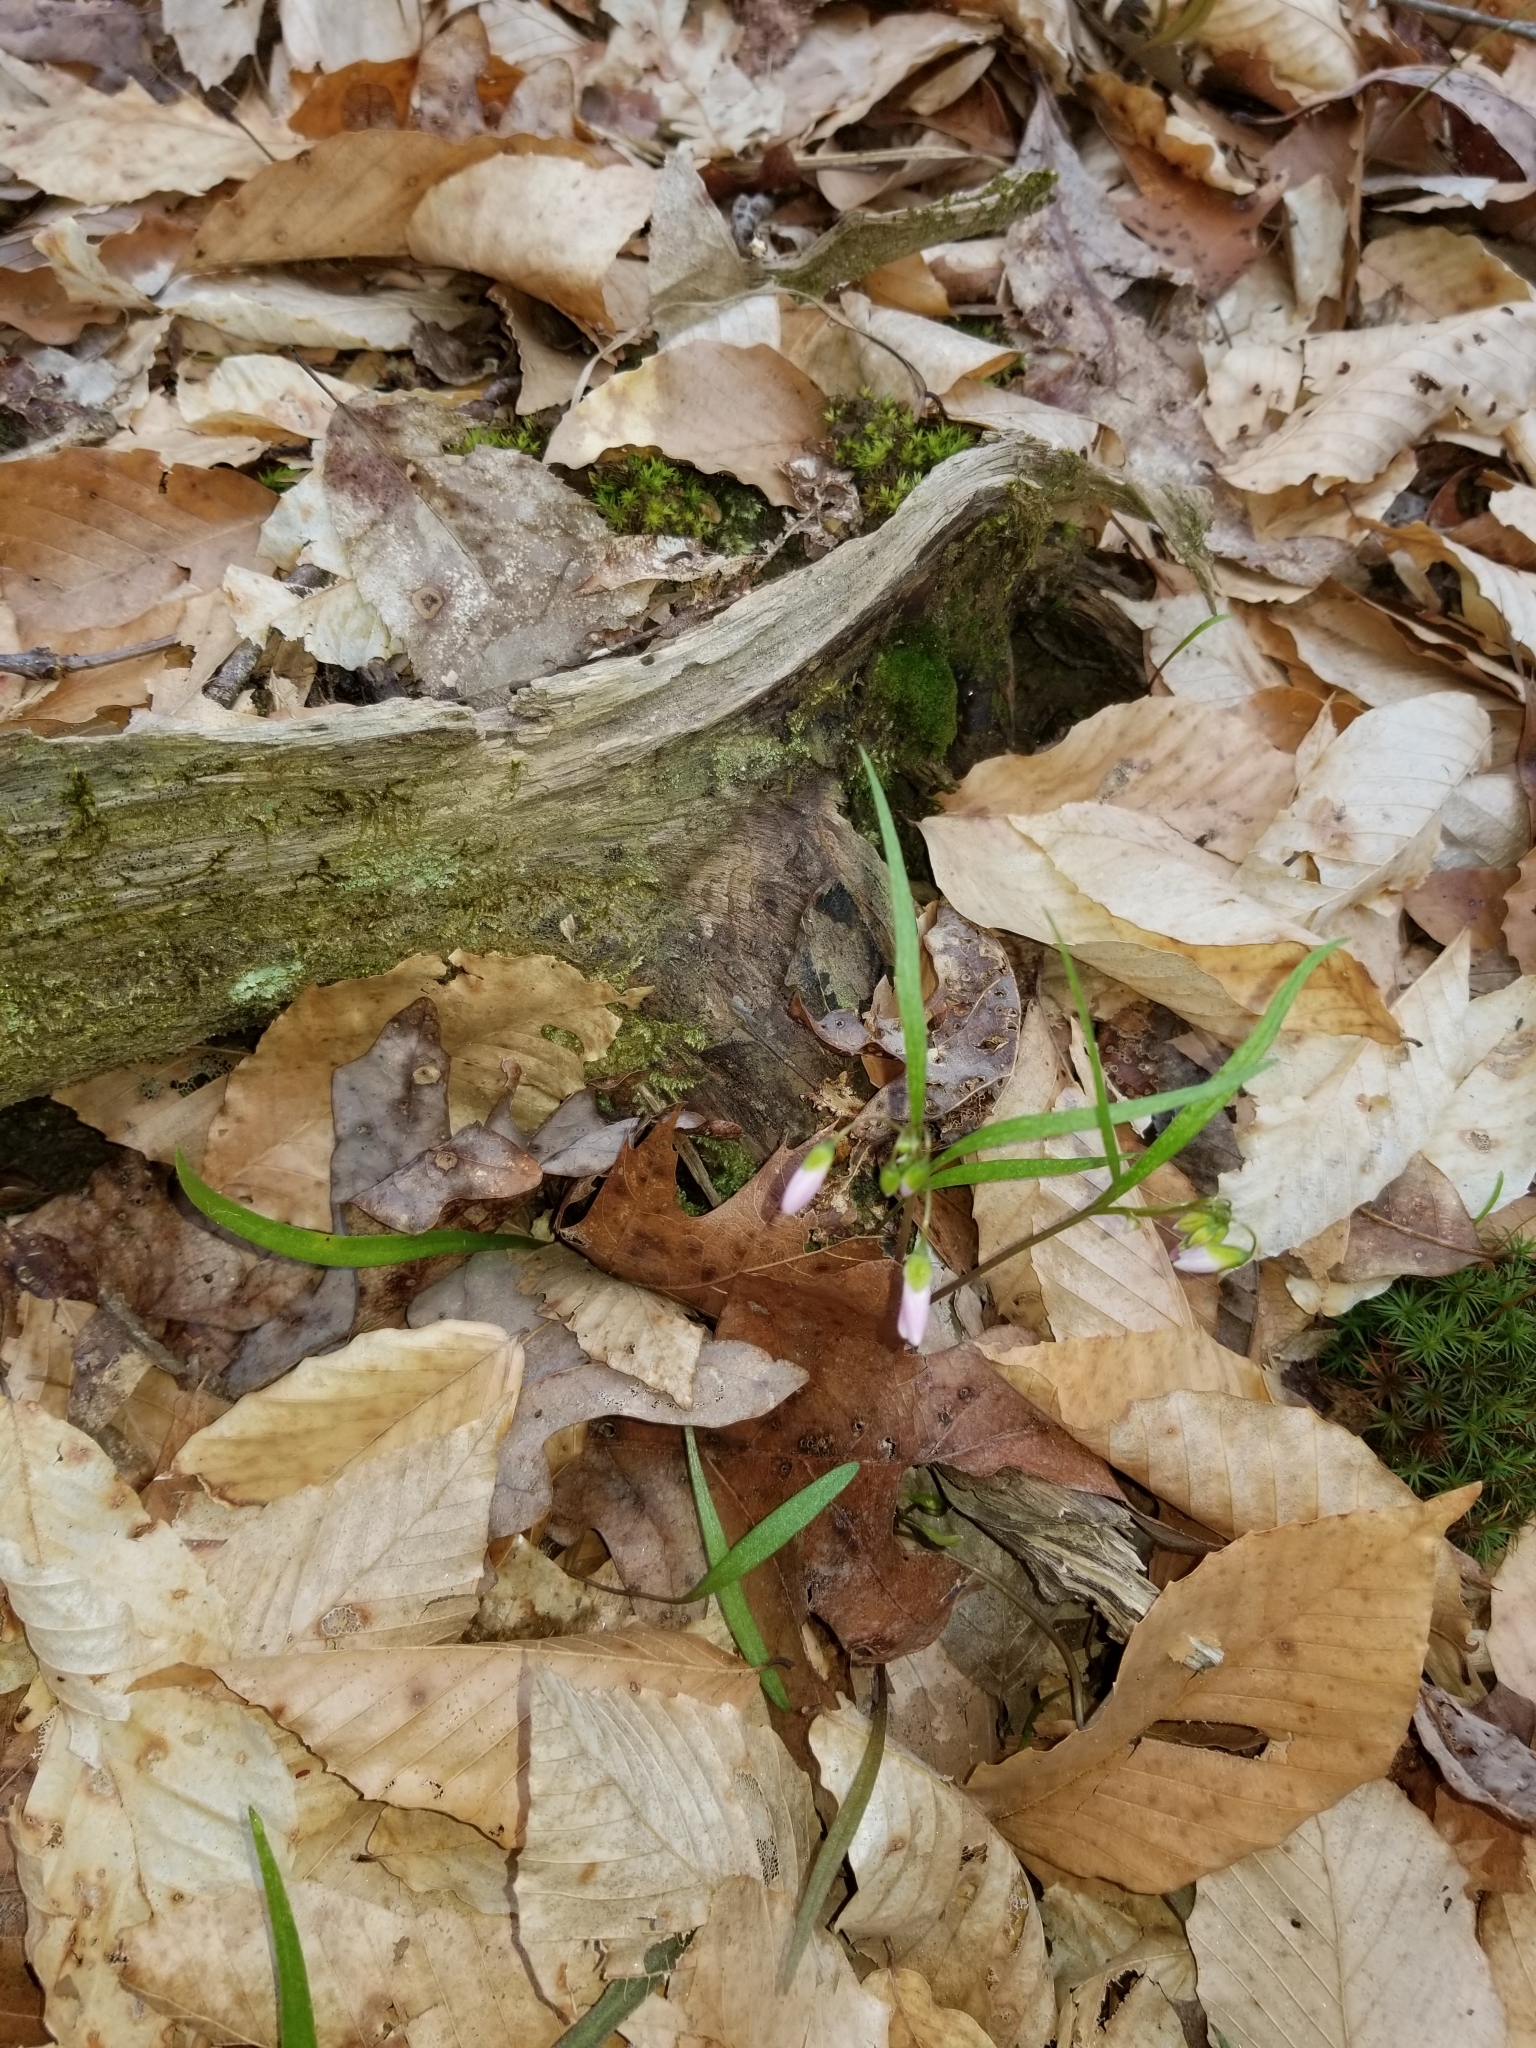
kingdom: Plantae
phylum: Tracheophyta
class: Magnoliopsida
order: Caryophyllales
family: Montiaceae
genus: Claytonia
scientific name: Claytonia virginica
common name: Virginia springbeauty
